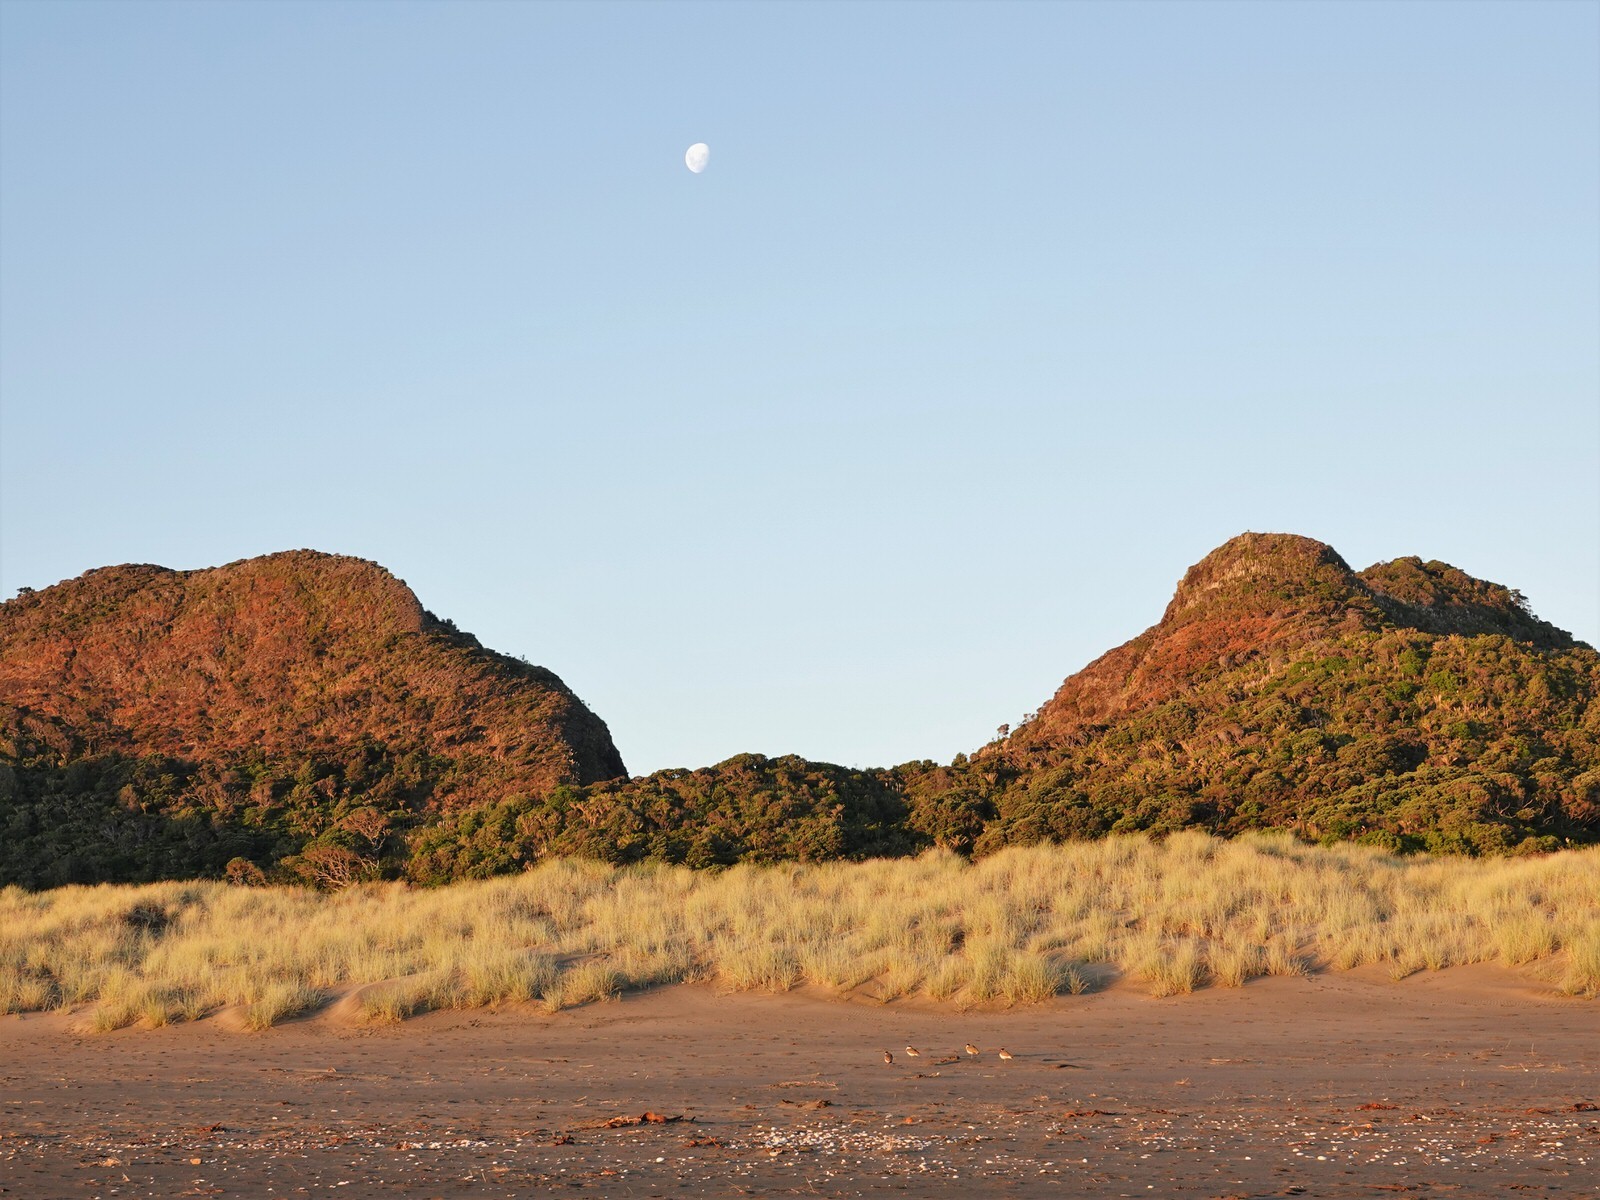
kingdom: Animalia
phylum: Chordata
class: Aves
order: Charadriiformes
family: Charadriidae
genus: Vanellus
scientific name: Vanellus miles
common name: Masked lapwing
